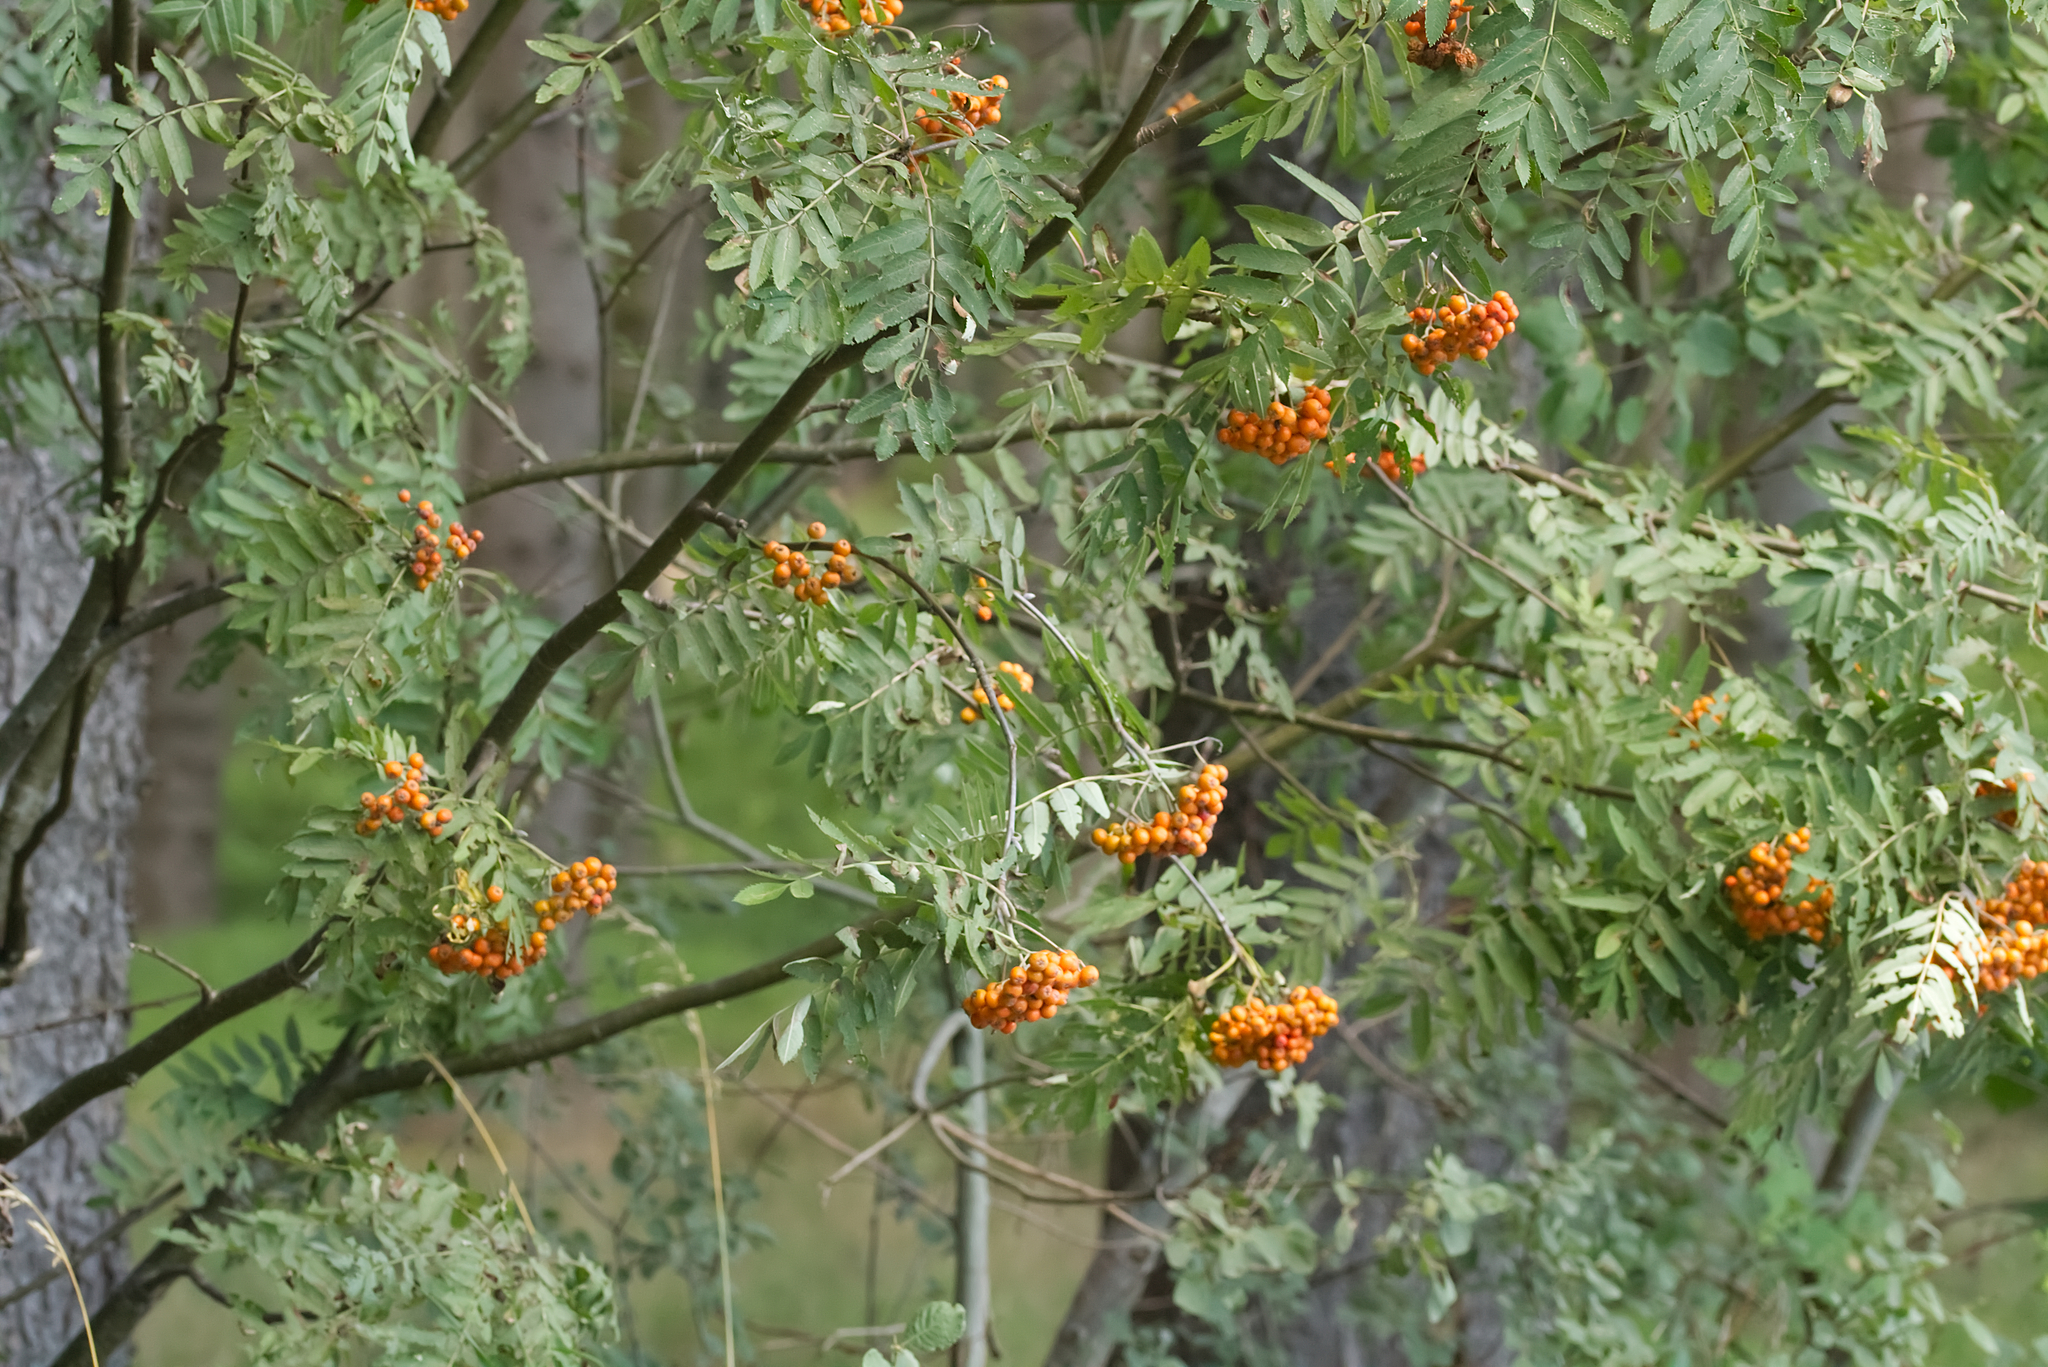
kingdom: Plantae
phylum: Tracheophyta
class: Magnoliopsida
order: Rosales
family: Rosaceae
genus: Sorbus
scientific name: Sorbus aucuparia
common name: Rowan
